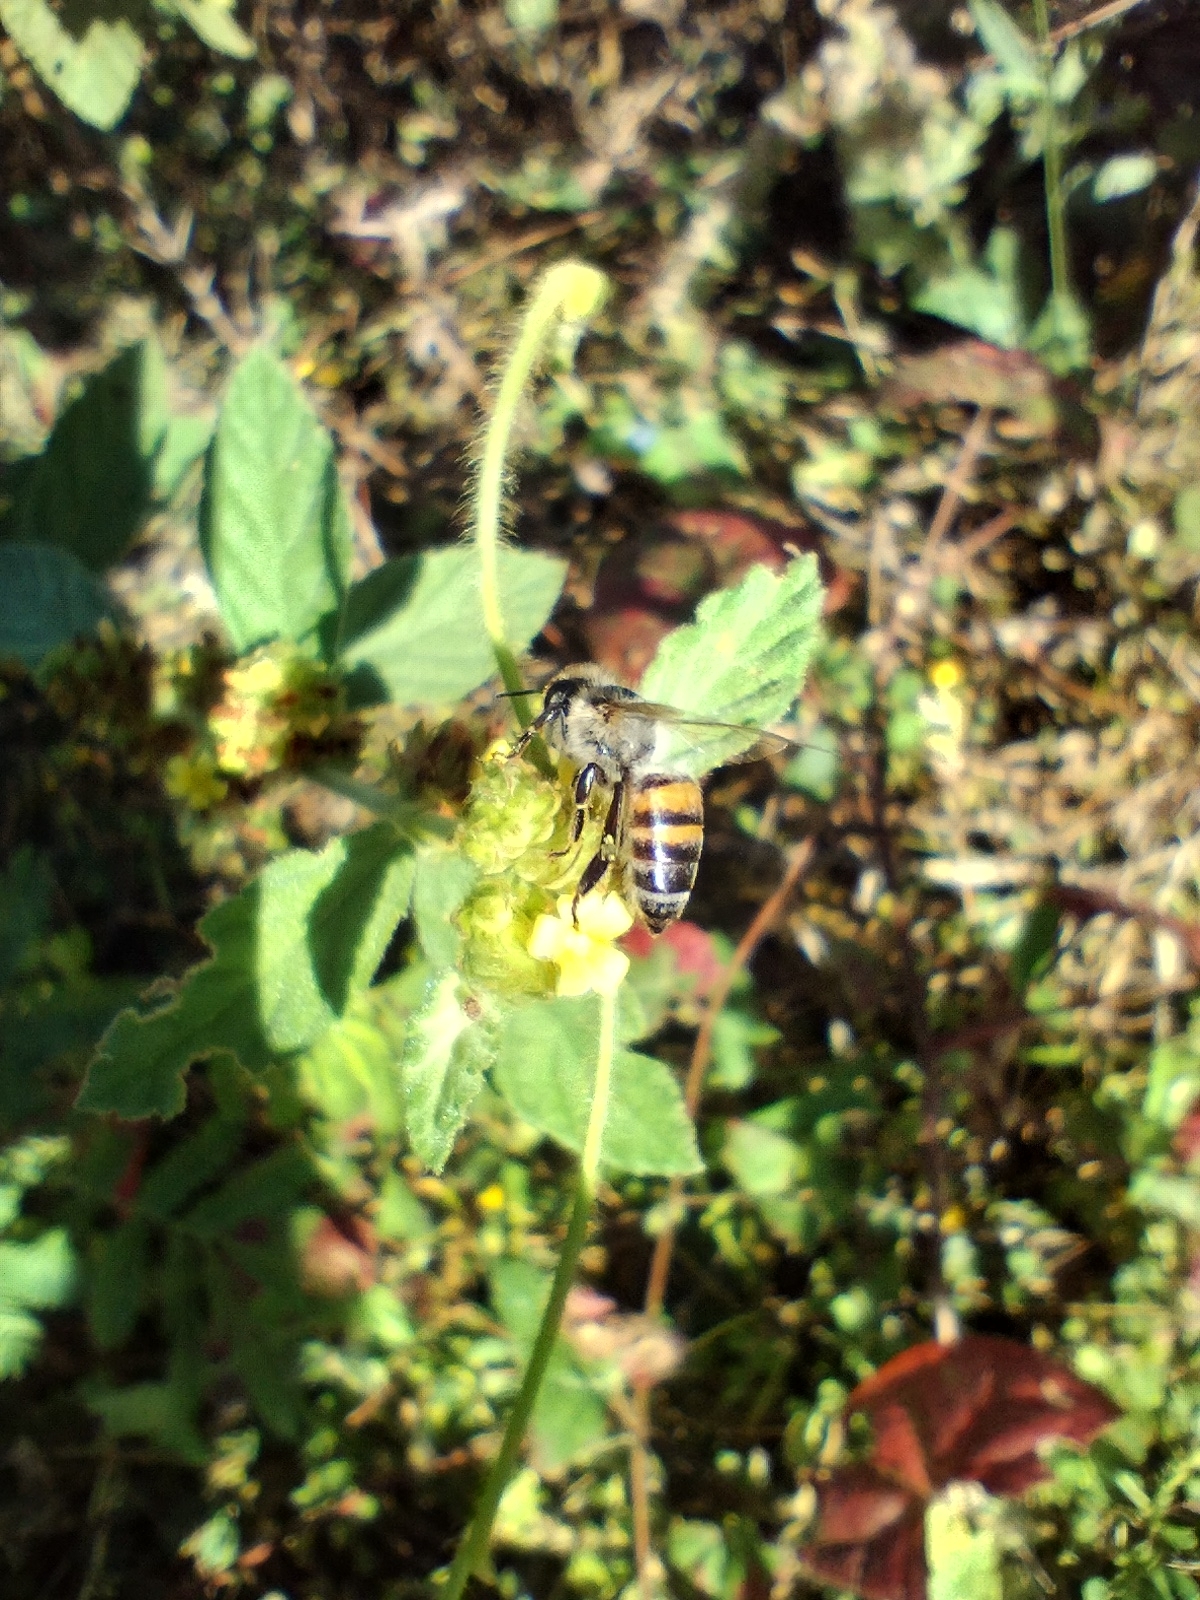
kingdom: Animalia
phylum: Arthropoda
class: Insecta
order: Hymenoptera
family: Apidae
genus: Apis
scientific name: Apis mellifera
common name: Honey bee
